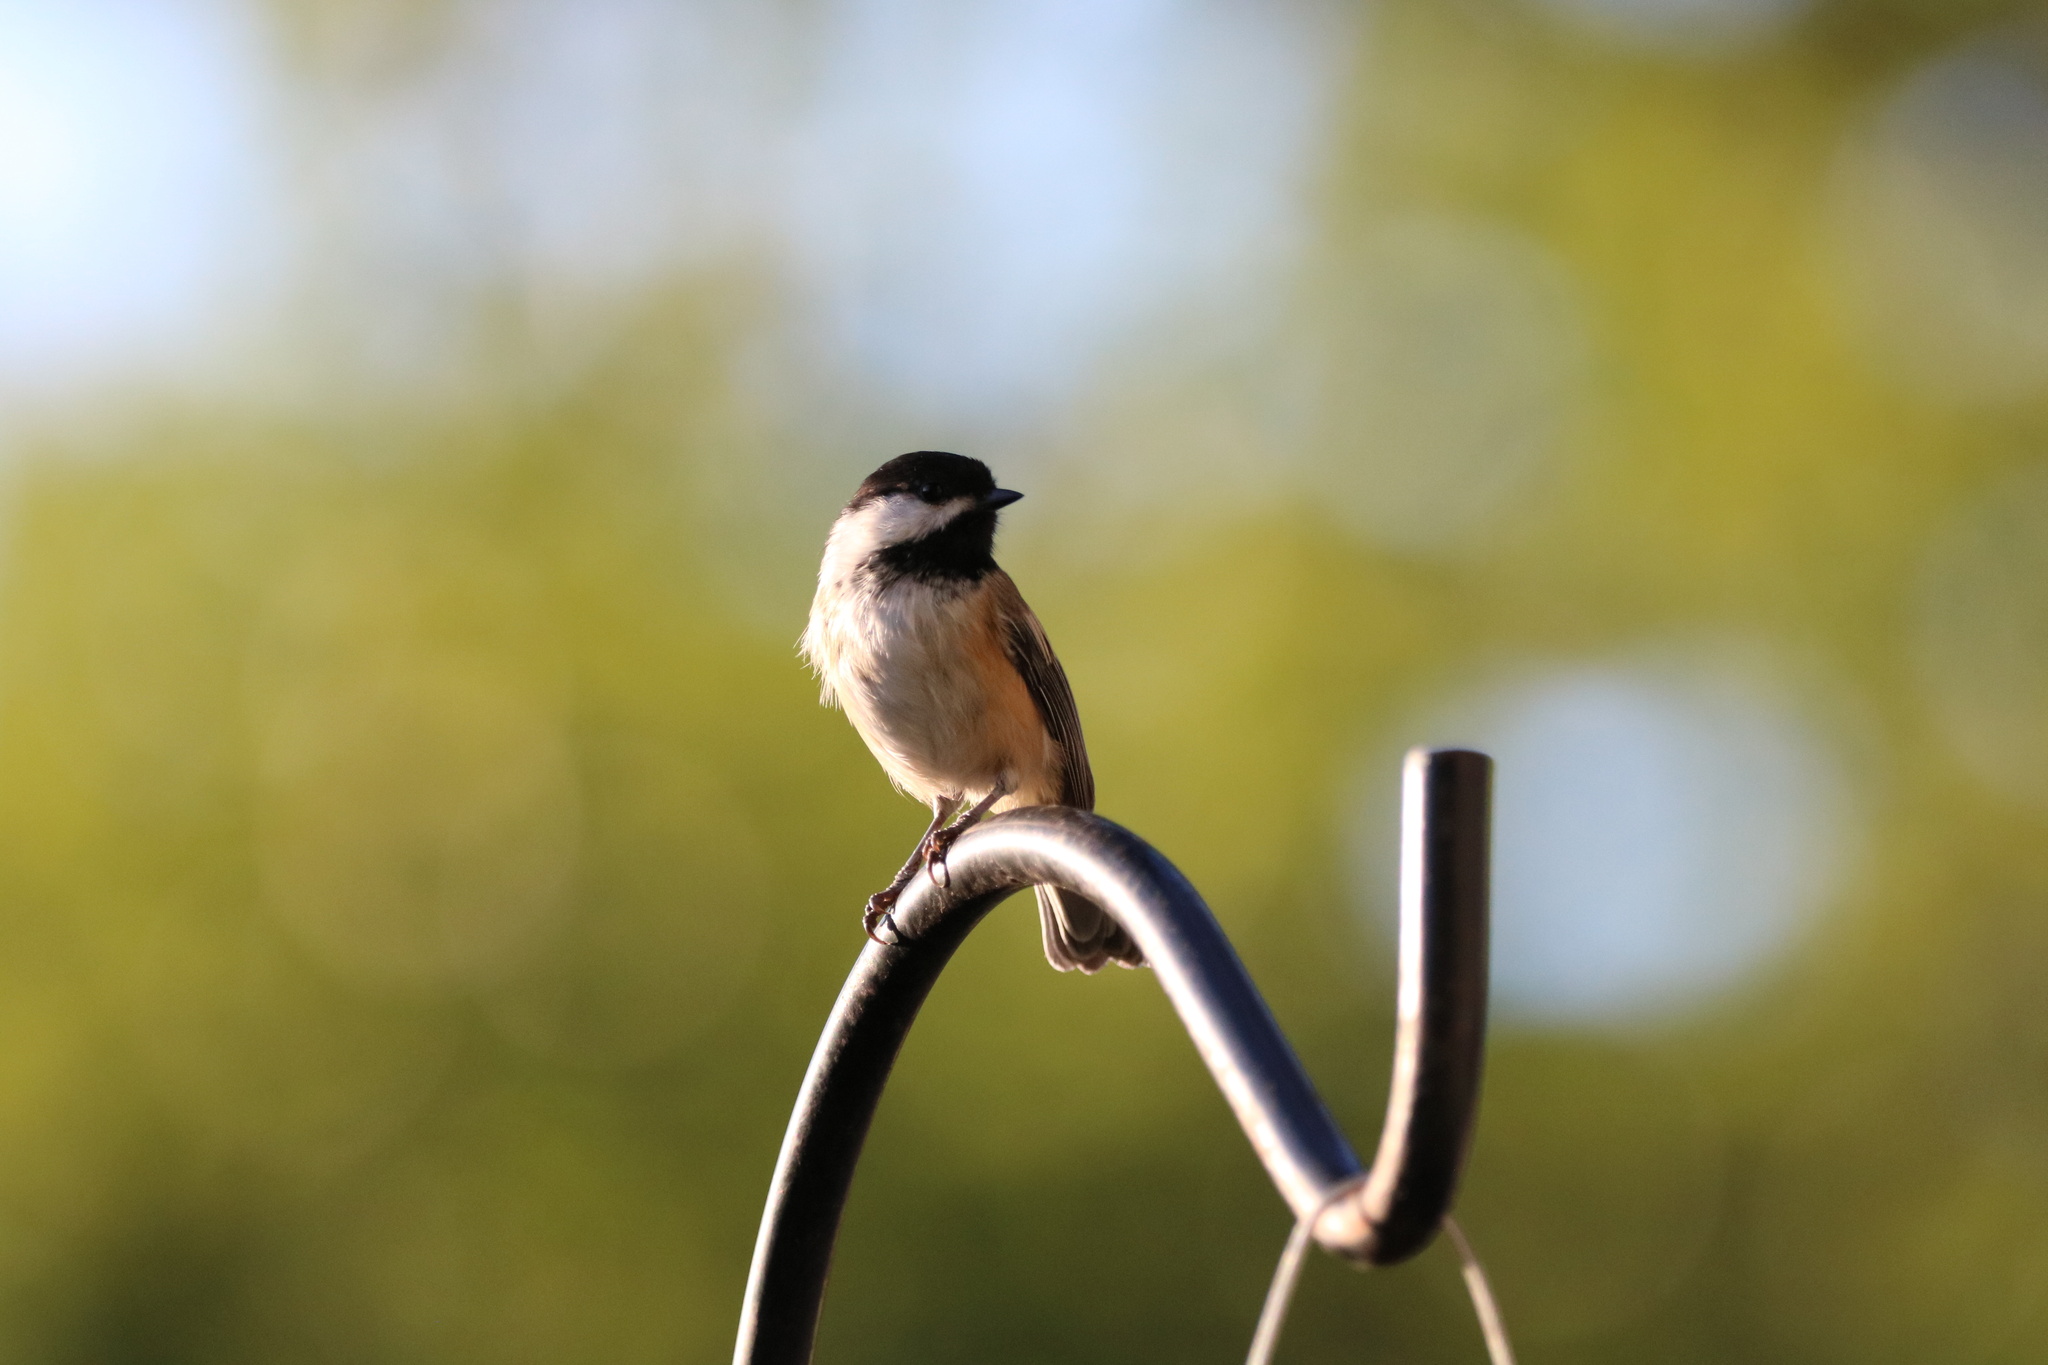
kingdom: Animalia
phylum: Chordata
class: Aves
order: Passeriformes
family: Paridae
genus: Poecile
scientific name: Poecile atricapillus
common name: Black-capped chickadee
